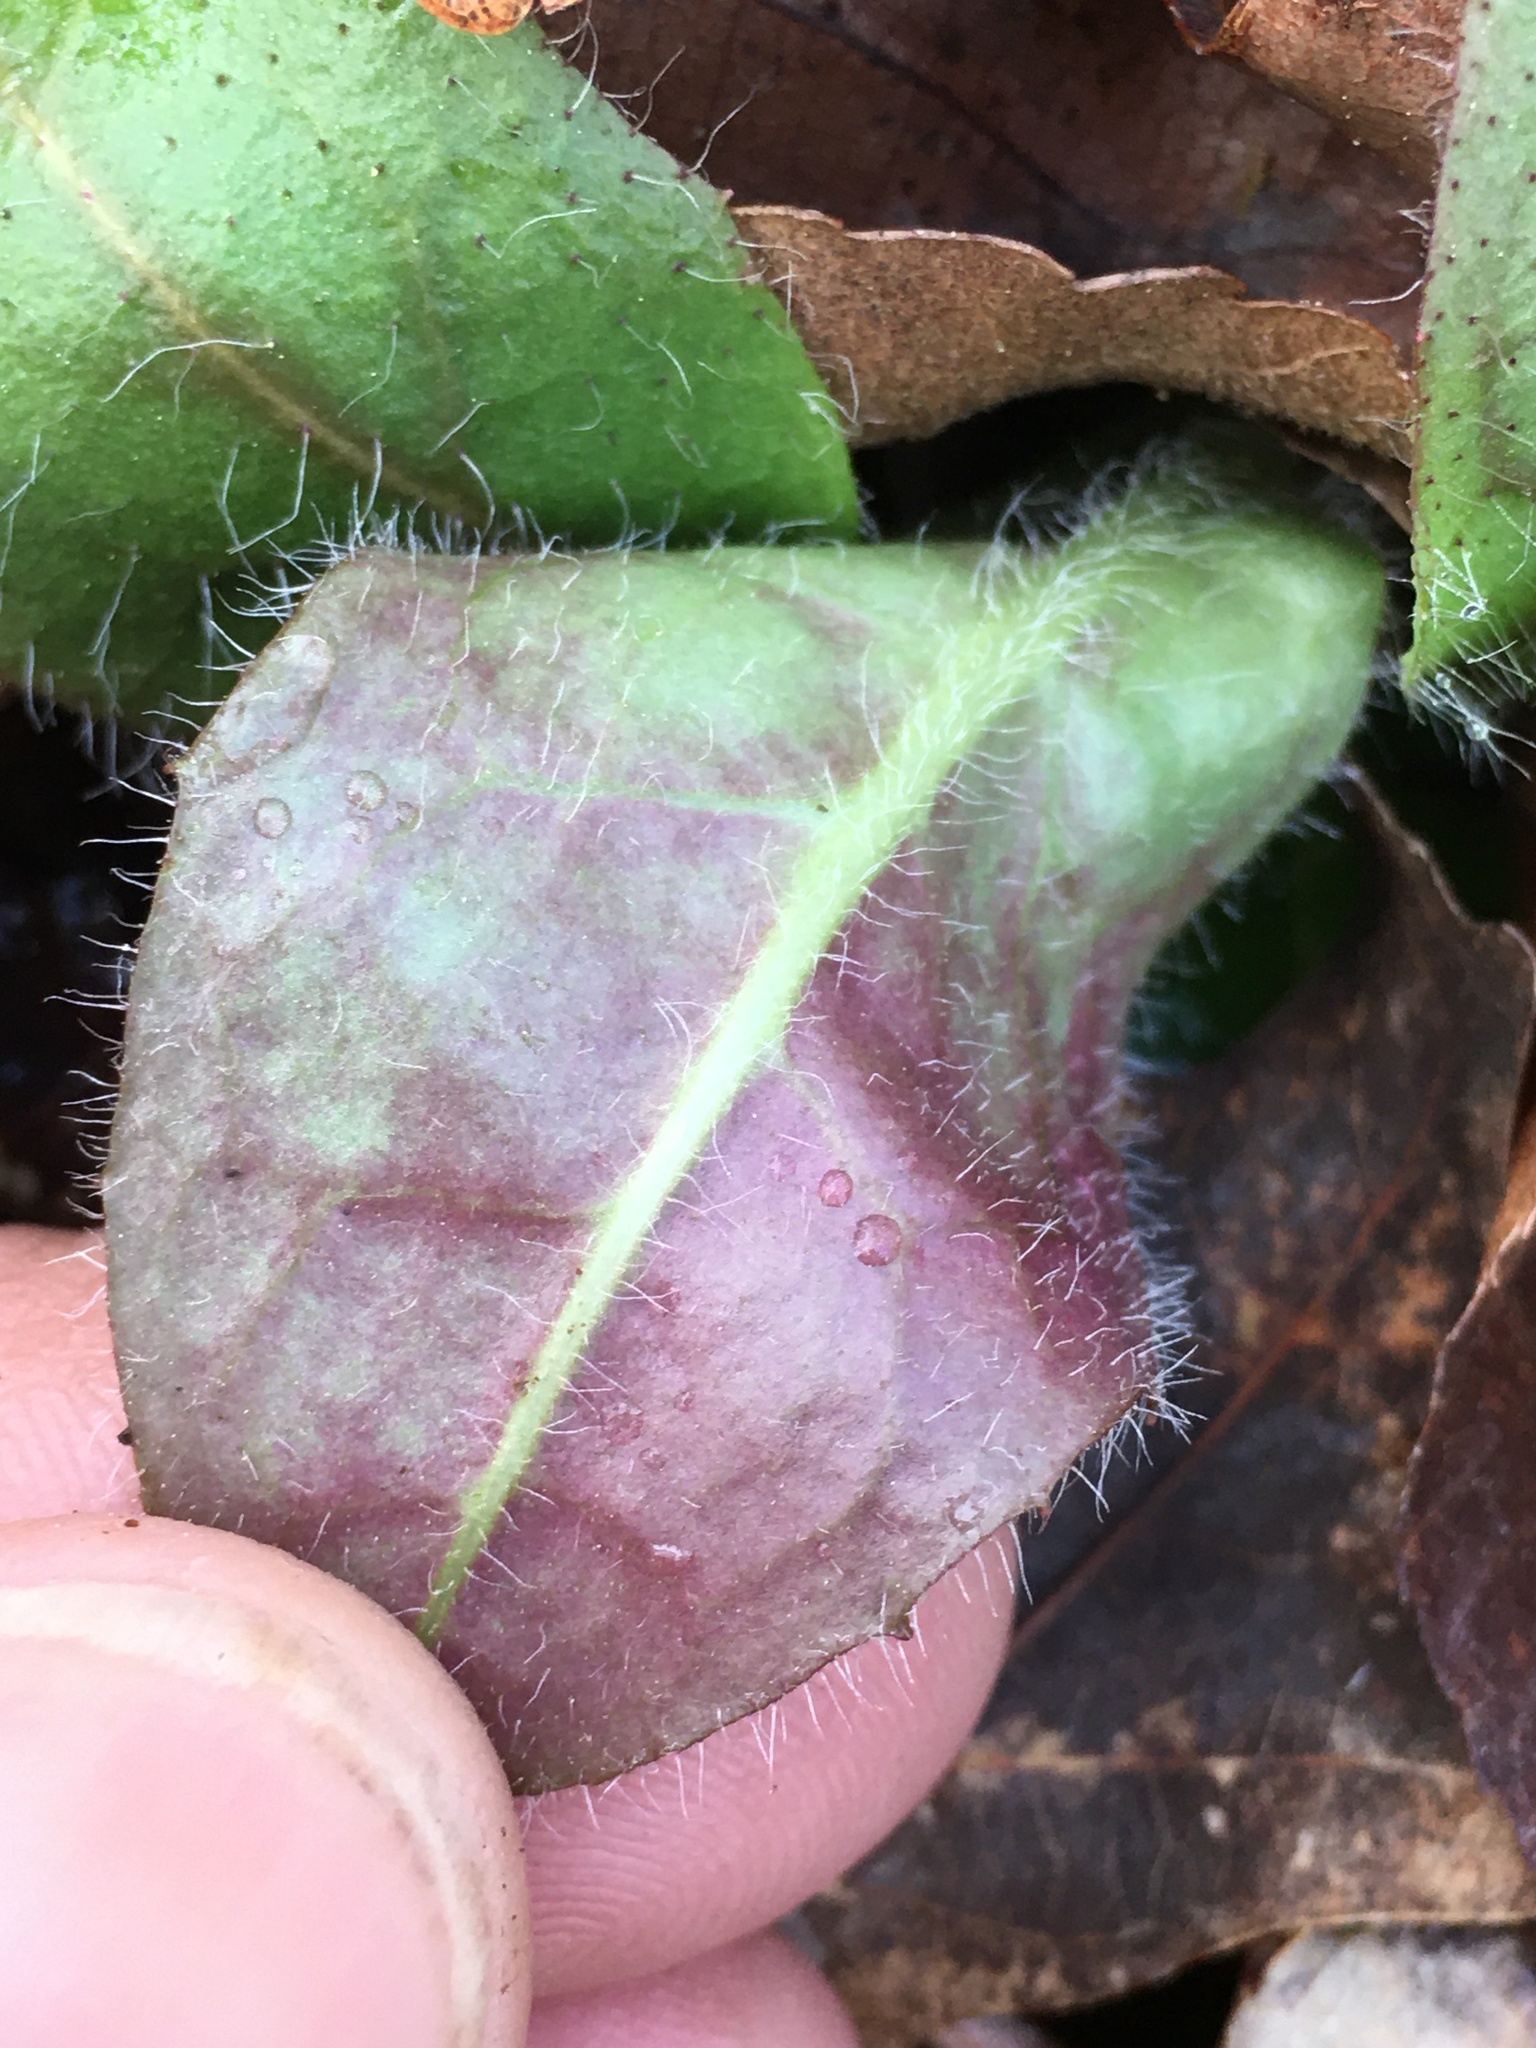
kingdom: Plantae
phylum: Tracheophyta
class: Magnoliopsida
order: Asterales
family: Asteraceae
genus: Hieracium
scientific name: Hieracium venosum
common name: Rattlesnake hawkweed
